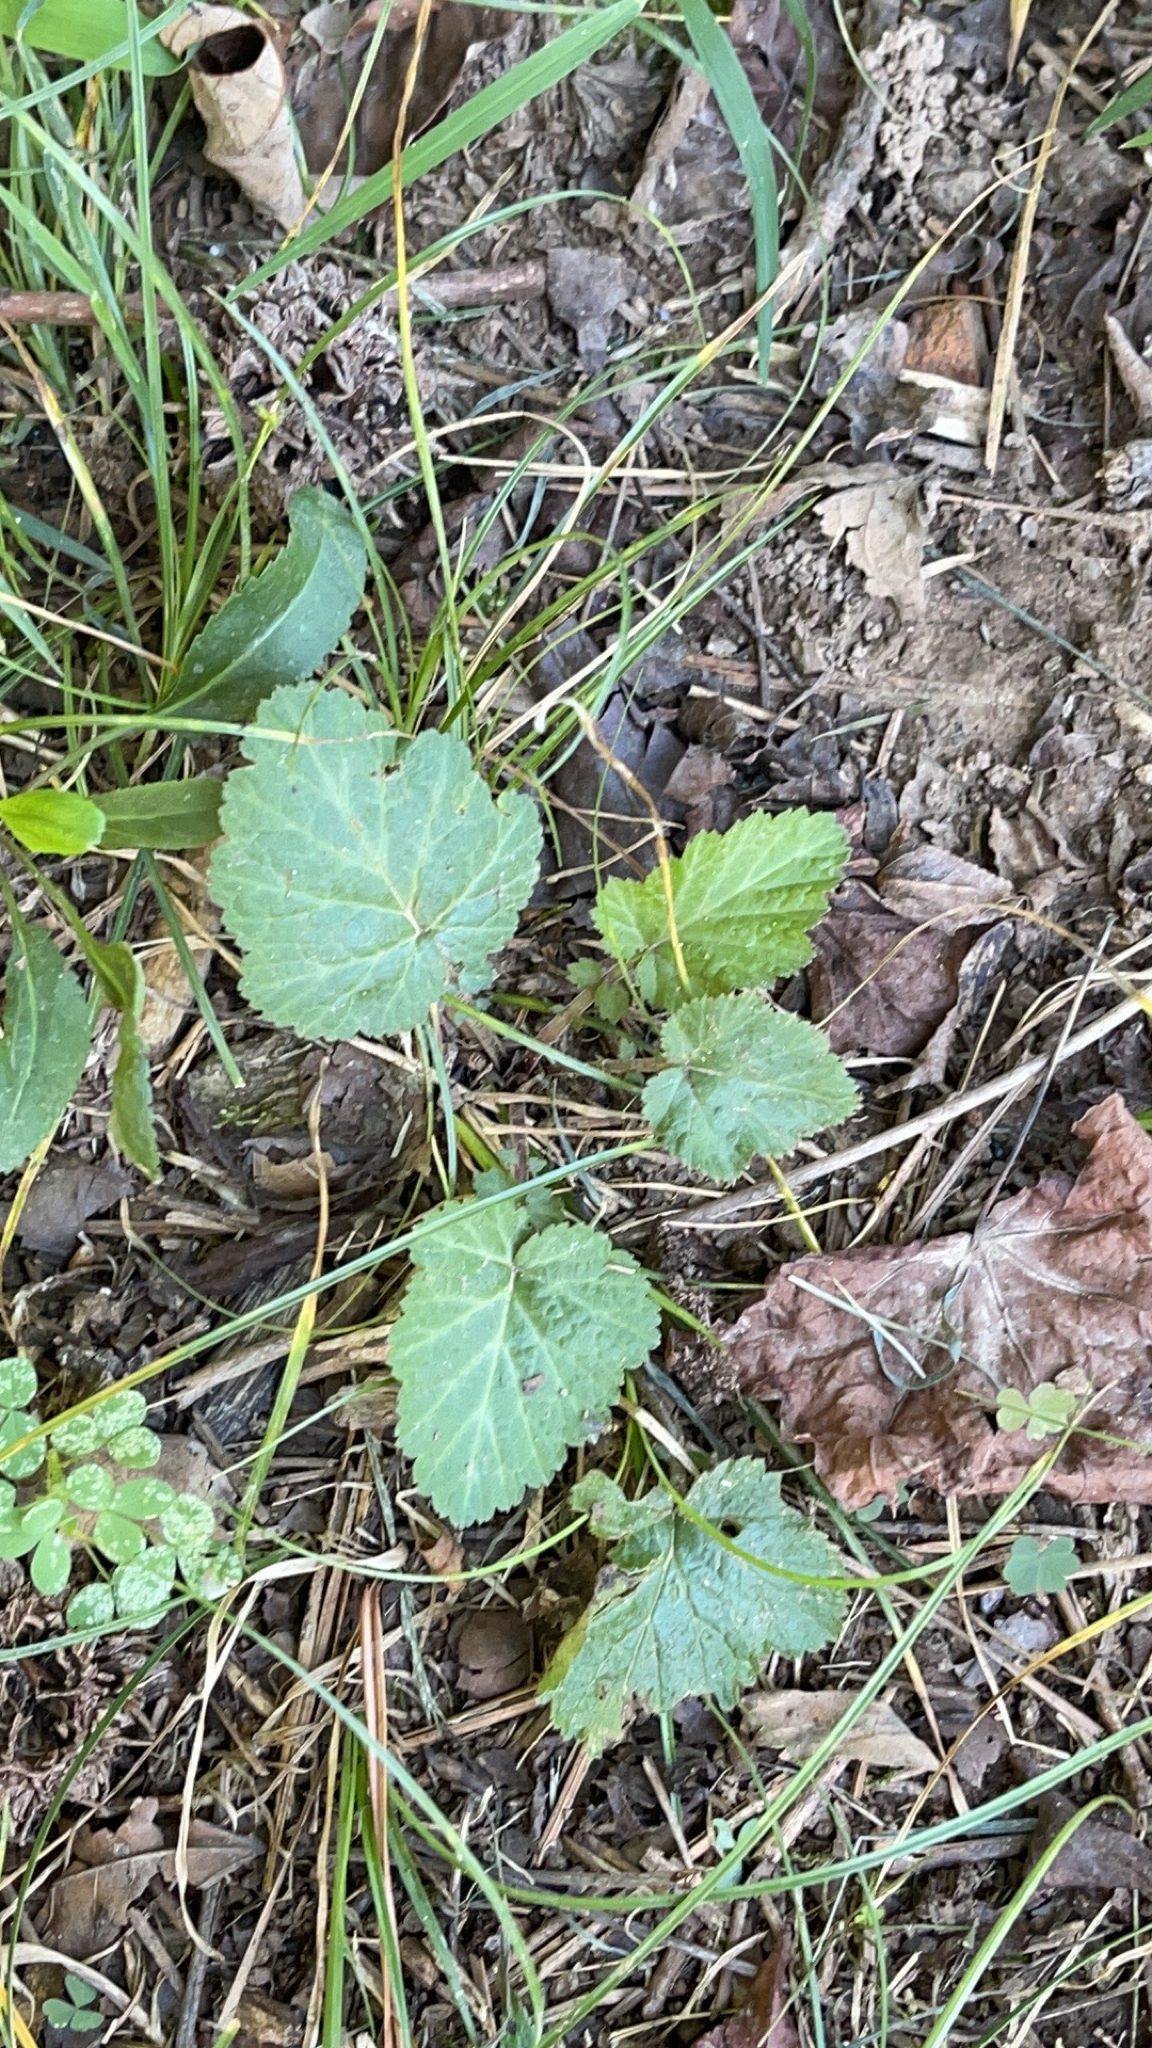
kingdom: Plantae
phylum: Tracheophyta
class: Magnoliopsida
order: Rosales
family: Rosaceae
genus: Geum
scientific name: Geum canadense
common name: White avens
